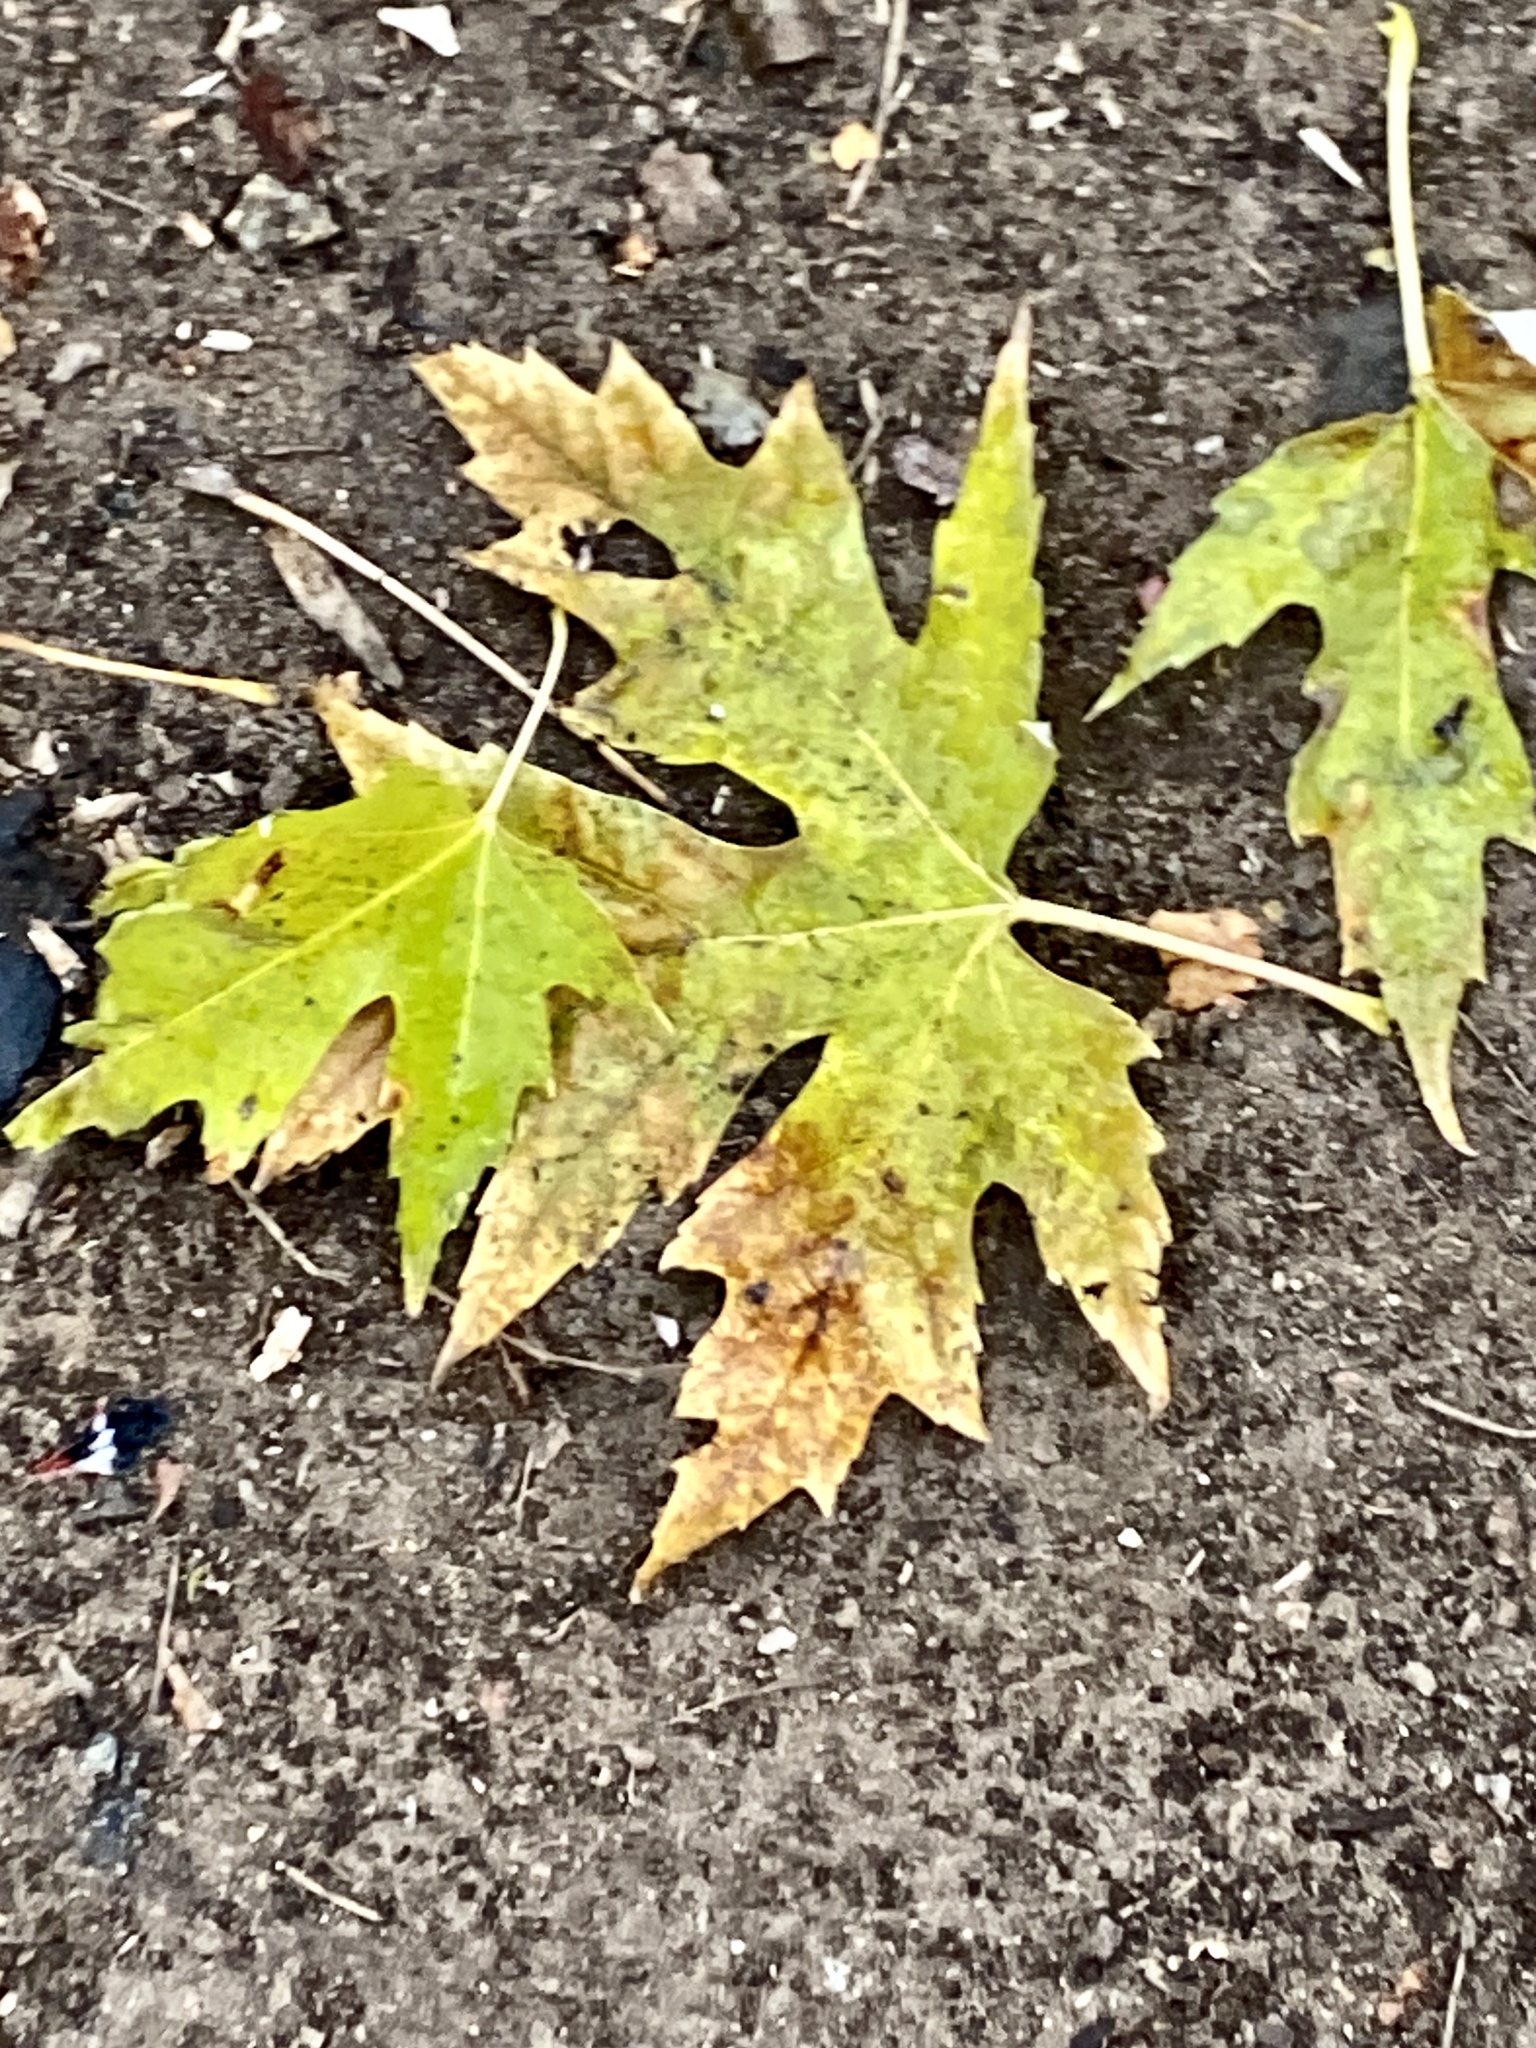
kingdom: Plantae
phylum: Tracheophyta
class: Magnoliopsida
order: Sapindales
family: Sapindaceae
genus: Acer
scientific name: Acer saccharinum
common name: Silver maple
